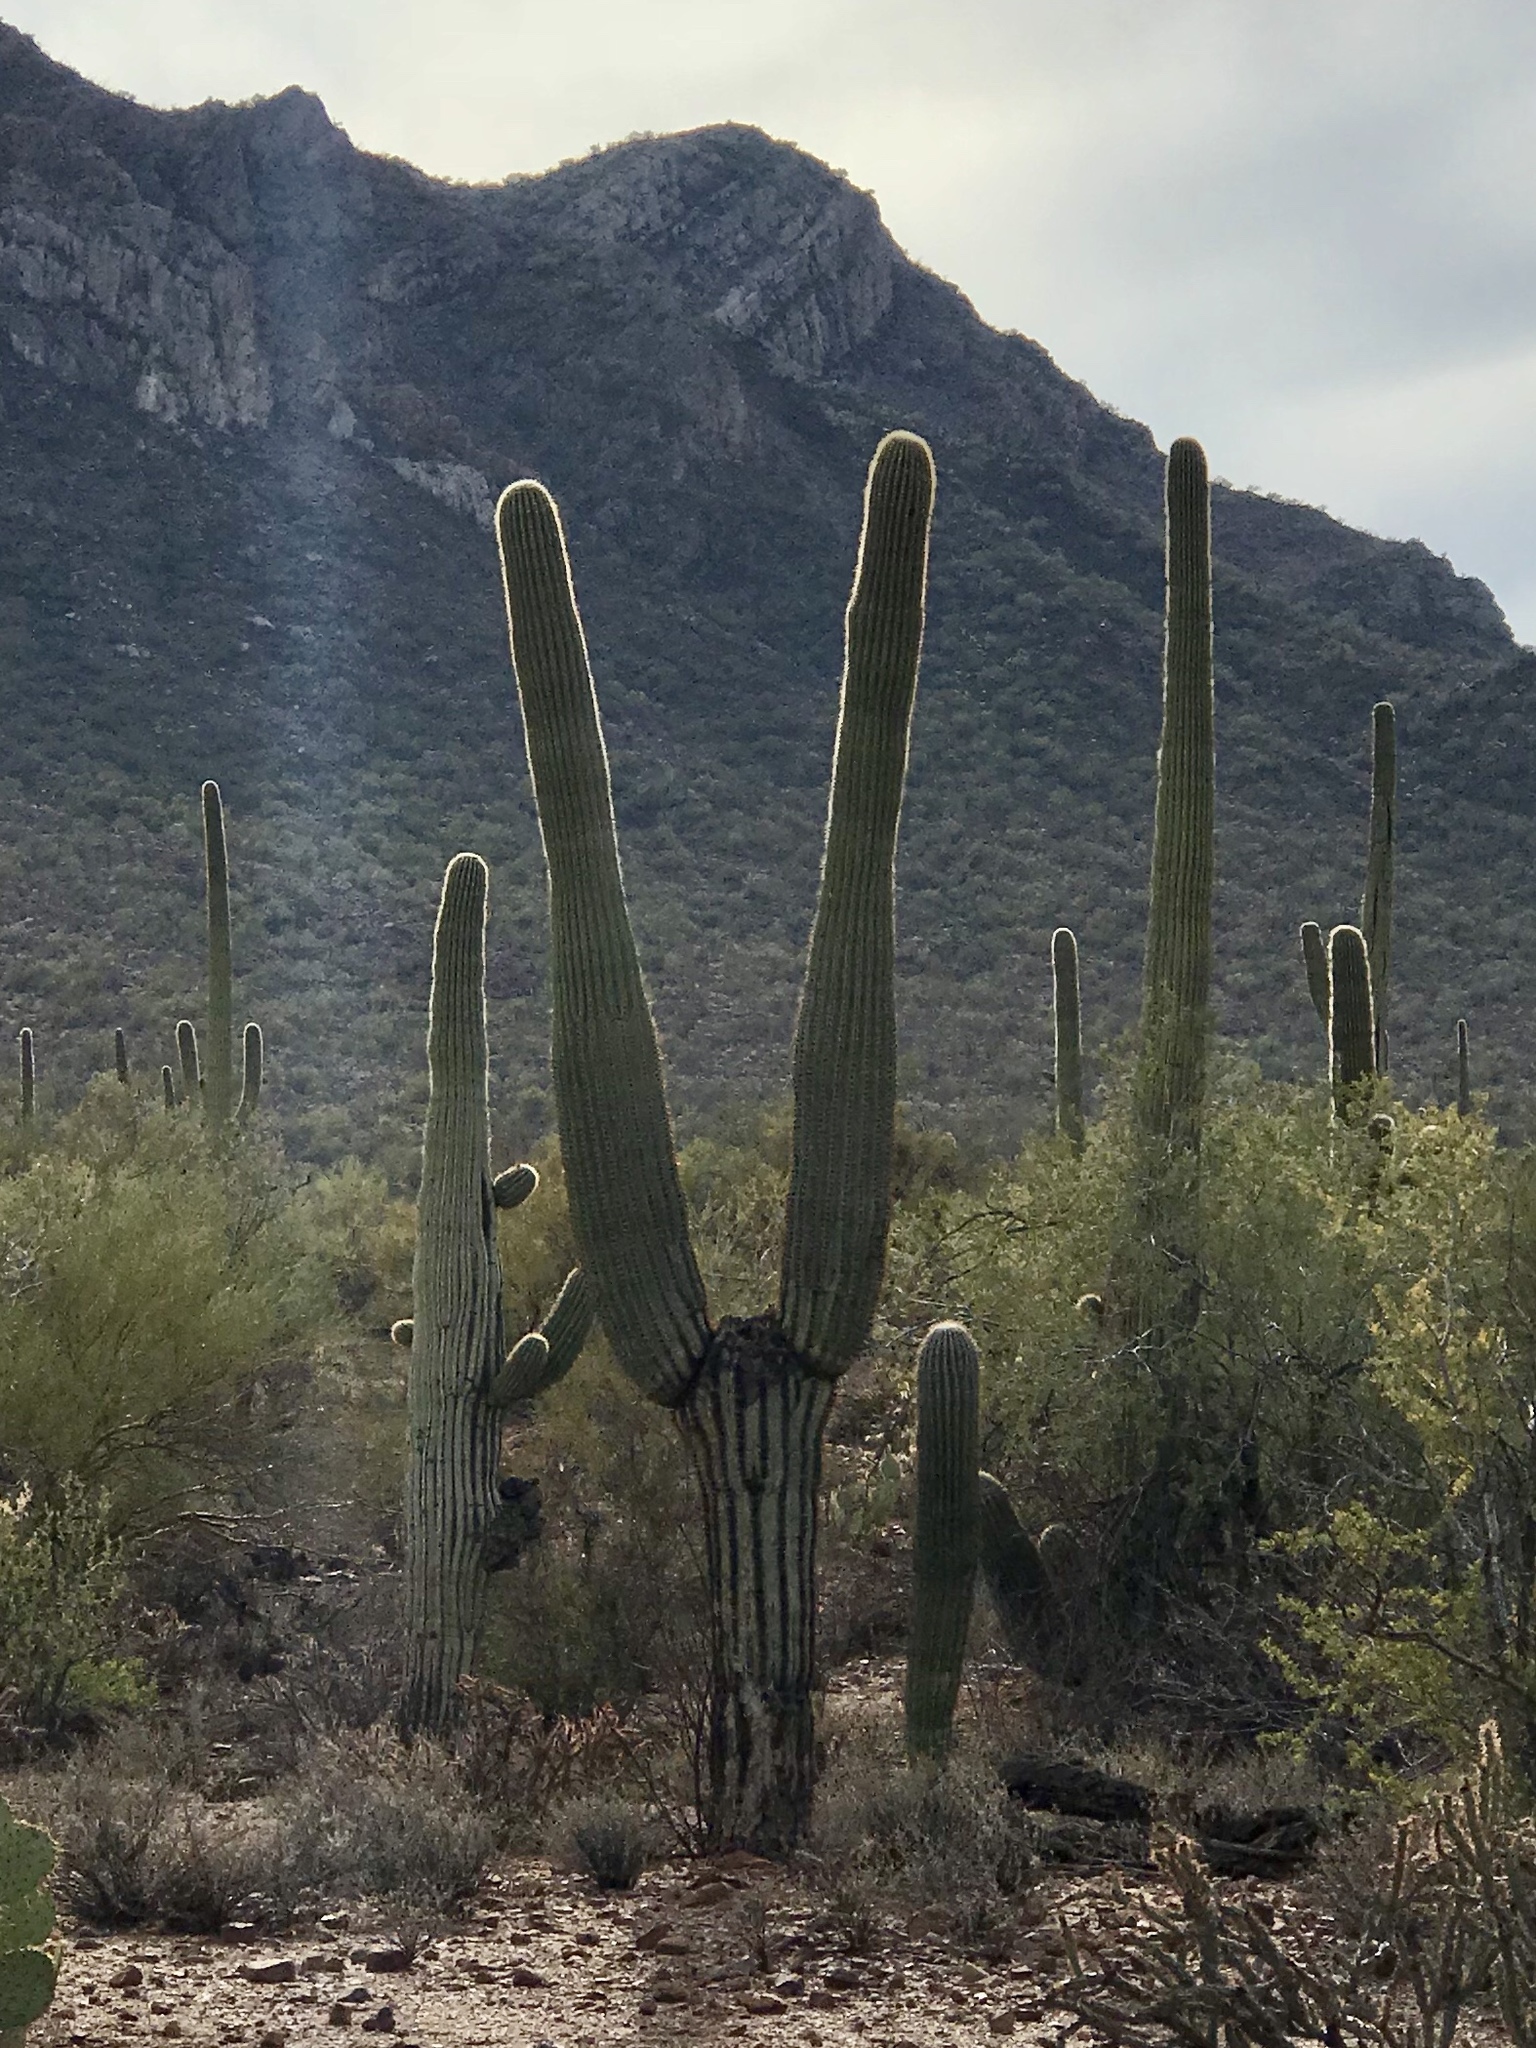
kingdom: Plantae
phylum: Tracheophyta
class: Magnoliopsida
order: Caryophyllales
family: Cactaceae
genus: Carnegiea
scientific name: Carnegiea gigantea
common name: Saguaro
